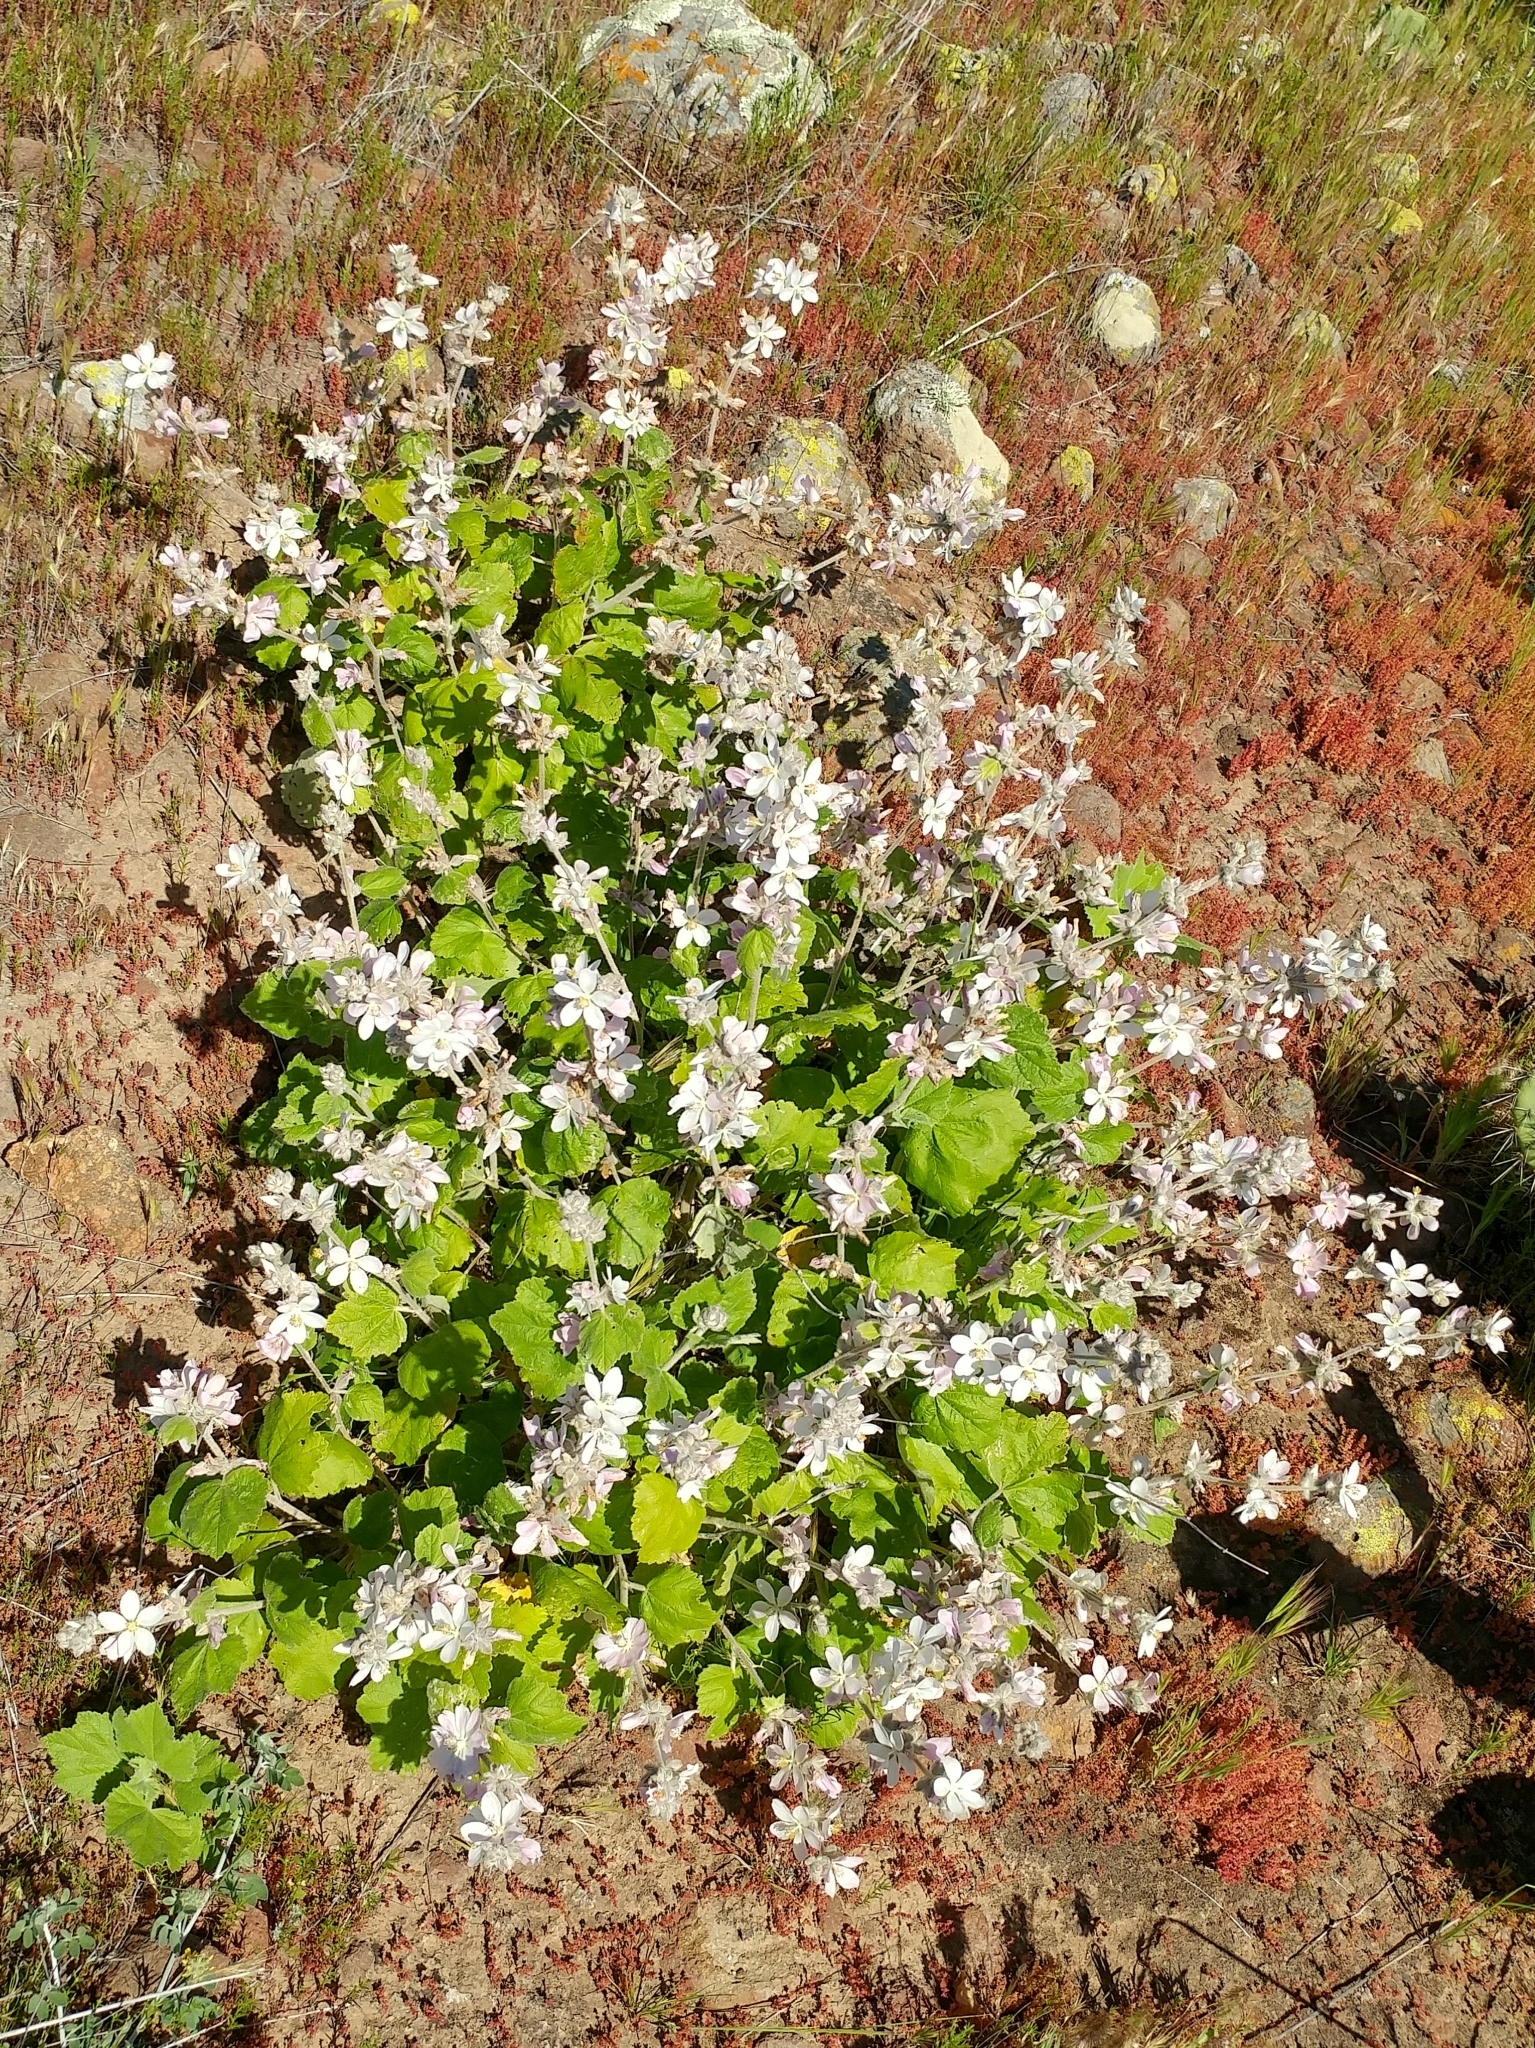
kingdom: Plantae
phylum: Tracheophyta
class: Magnoliopsida
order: Malvales
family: Malvaceae
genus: Malacothamnus
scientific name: Malacothamnus clementinus
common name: San clemente island bush-mallow
